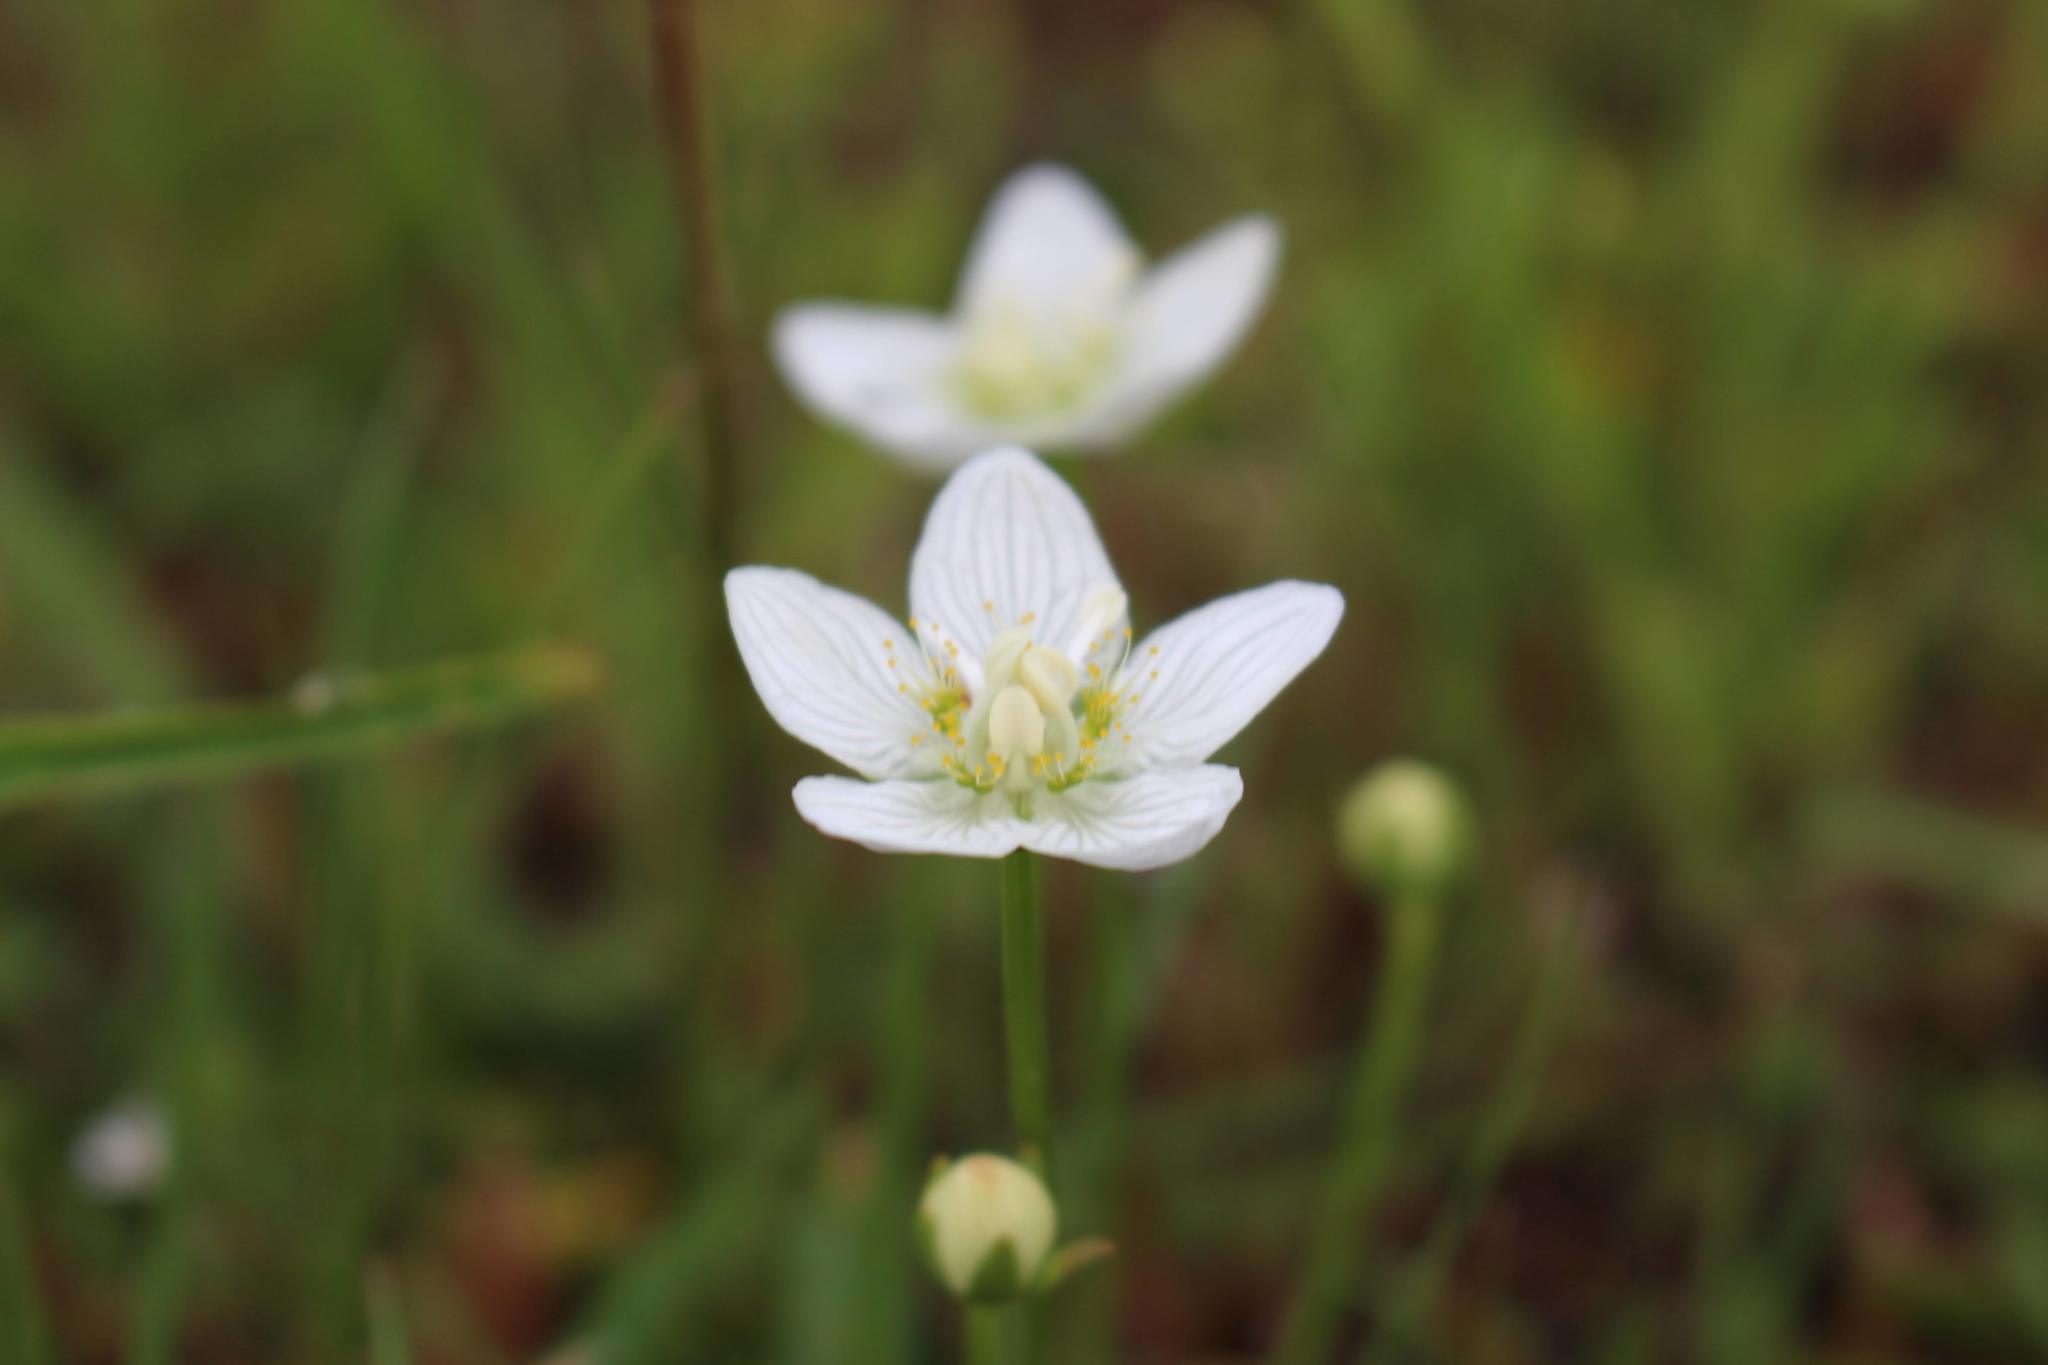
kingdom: Plantae
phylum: Tracheophyta
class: Magnoliopsida
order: Celastrales
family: Parnassiaceae
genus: Parnassia
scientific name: Parnassia palustris
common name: Grass-of-parnassus
